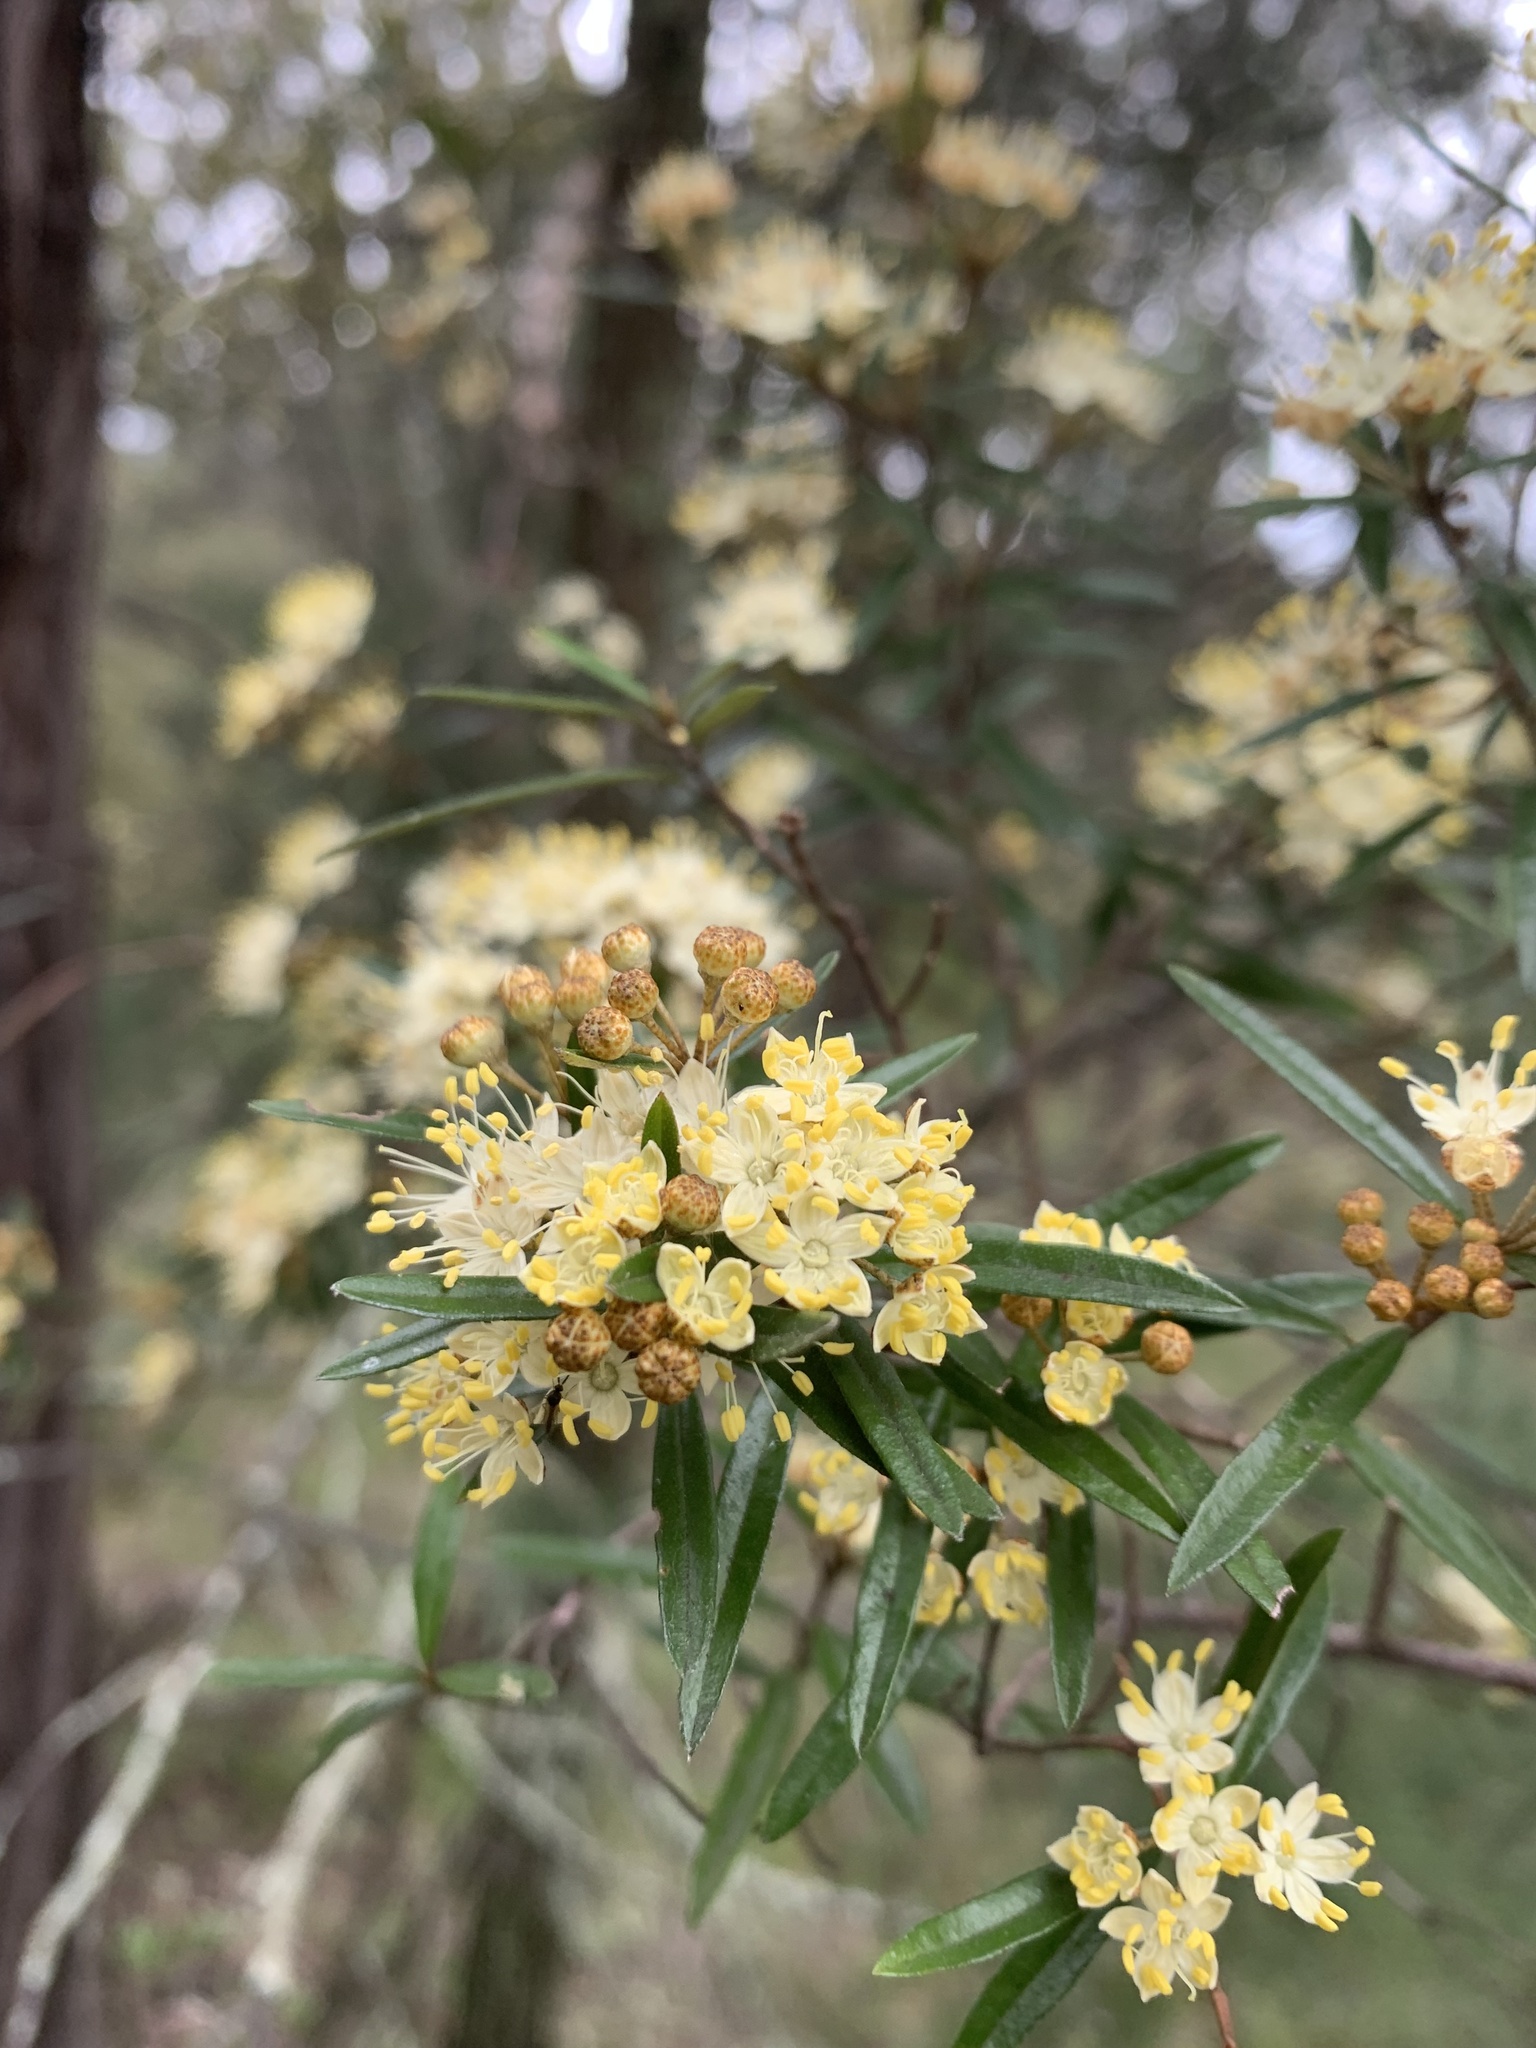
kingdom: Plantae
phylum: Tracheophyta
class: Magnoliopsida
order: Sapindales
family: Rutaceae
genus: Phebalium
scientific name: Phebalium squamulosum
